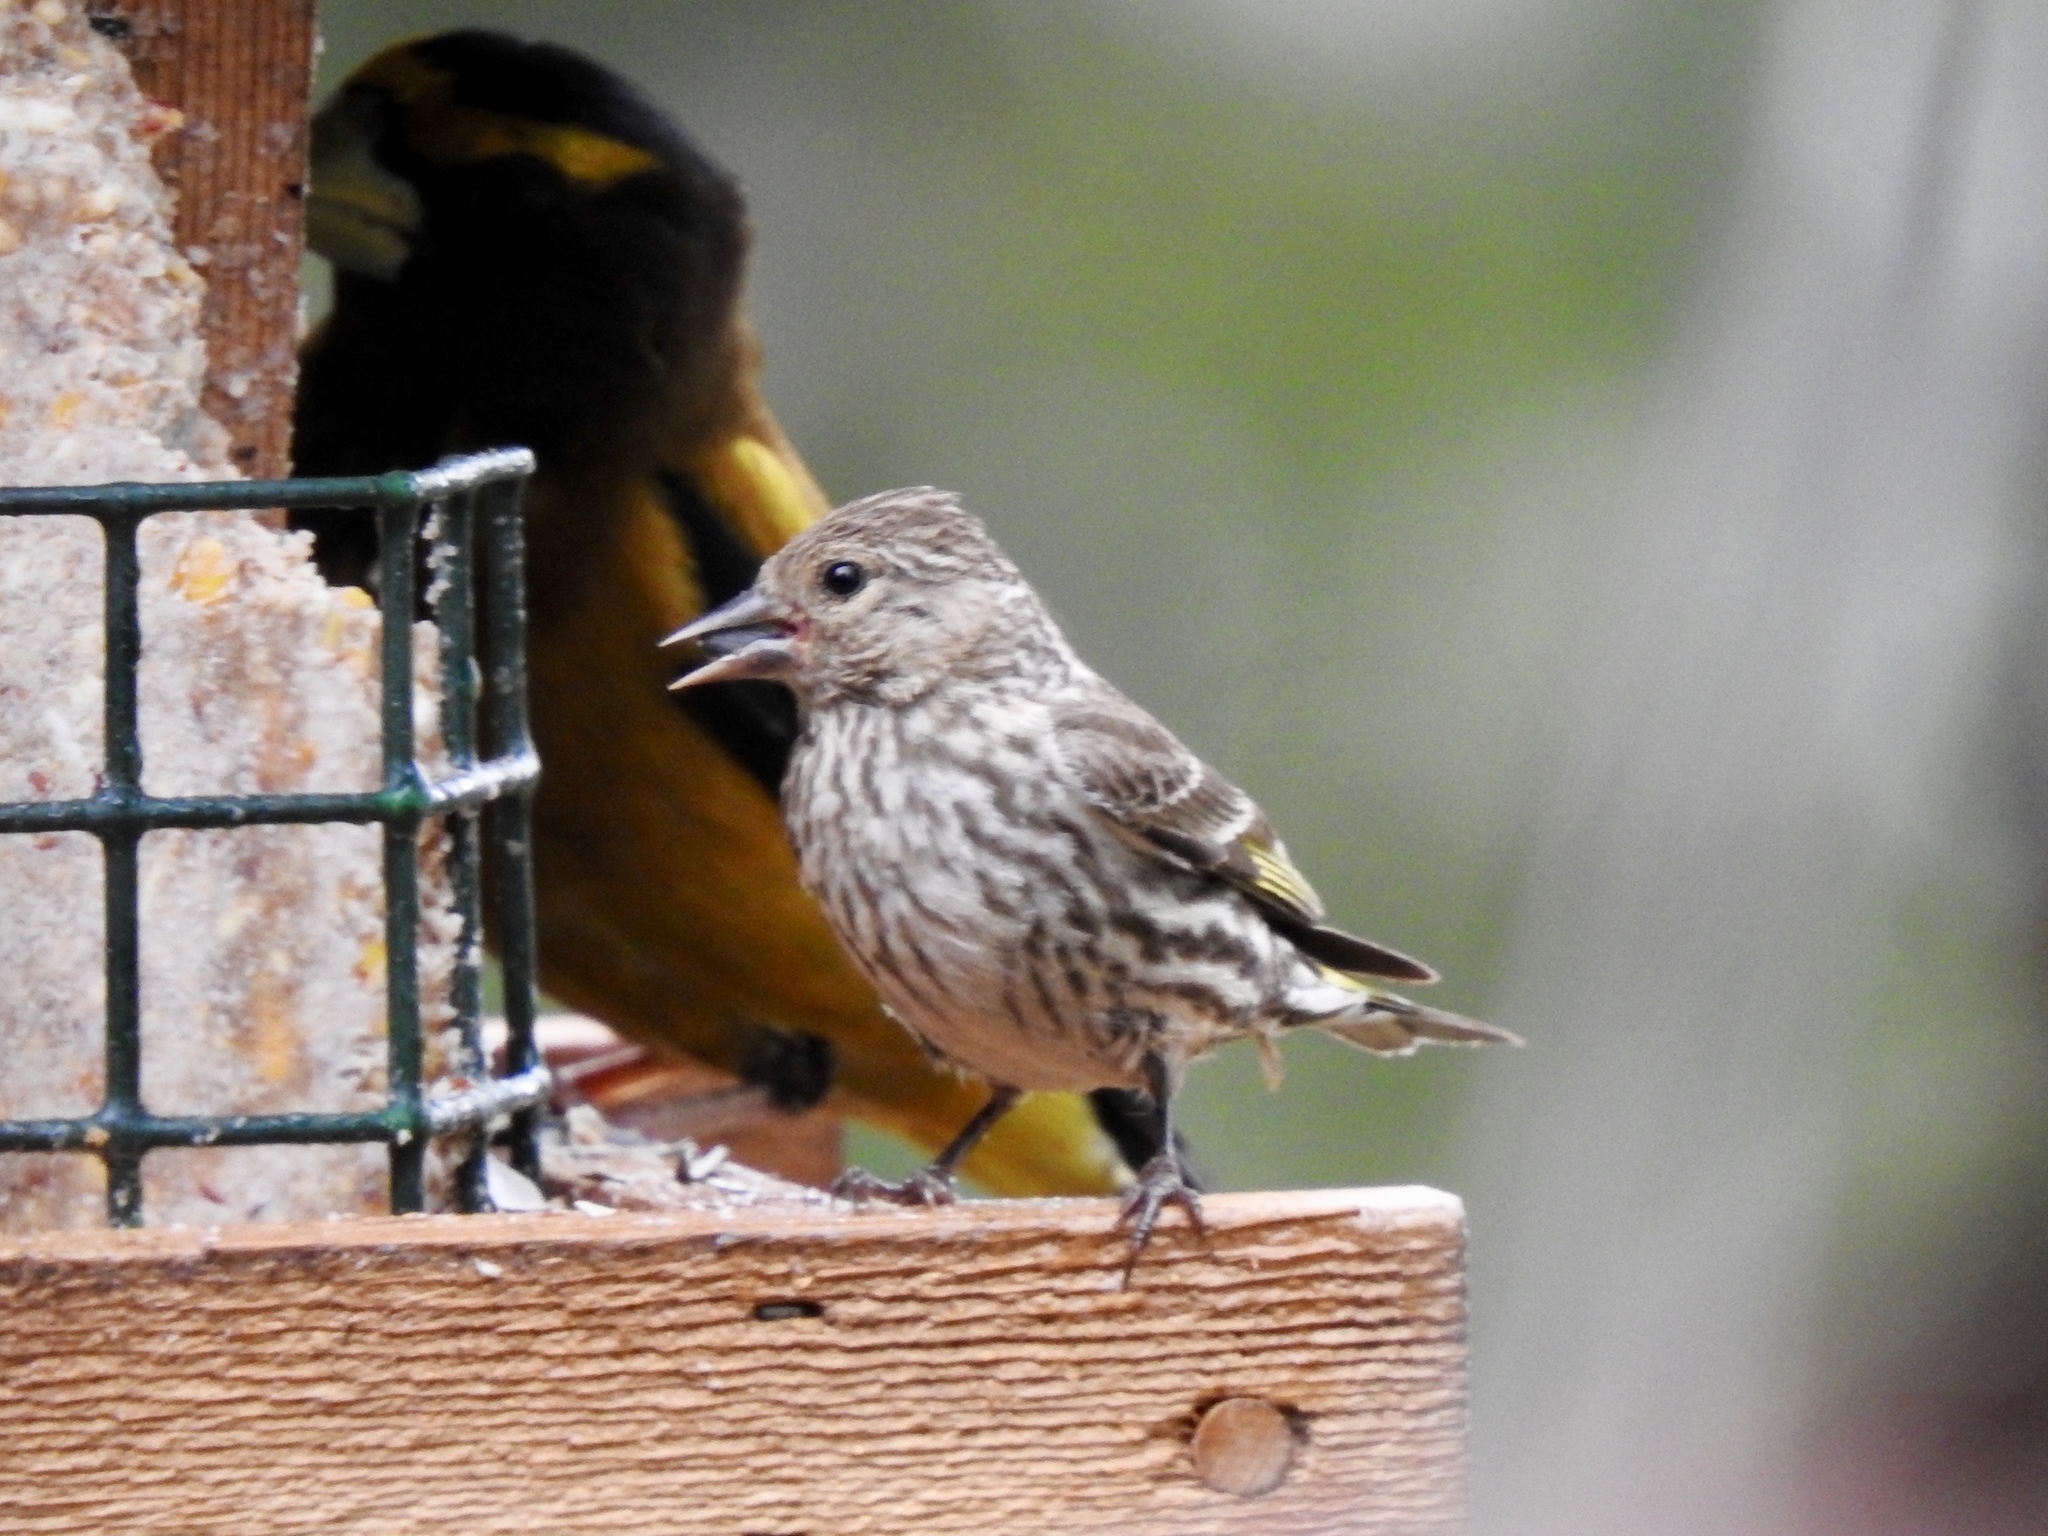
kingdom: Animalia
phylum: Chordata
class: Aves
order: Passeriformes
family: Fringillidae
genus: Spinus
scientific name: Spinus pinus
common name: Pine siskin
